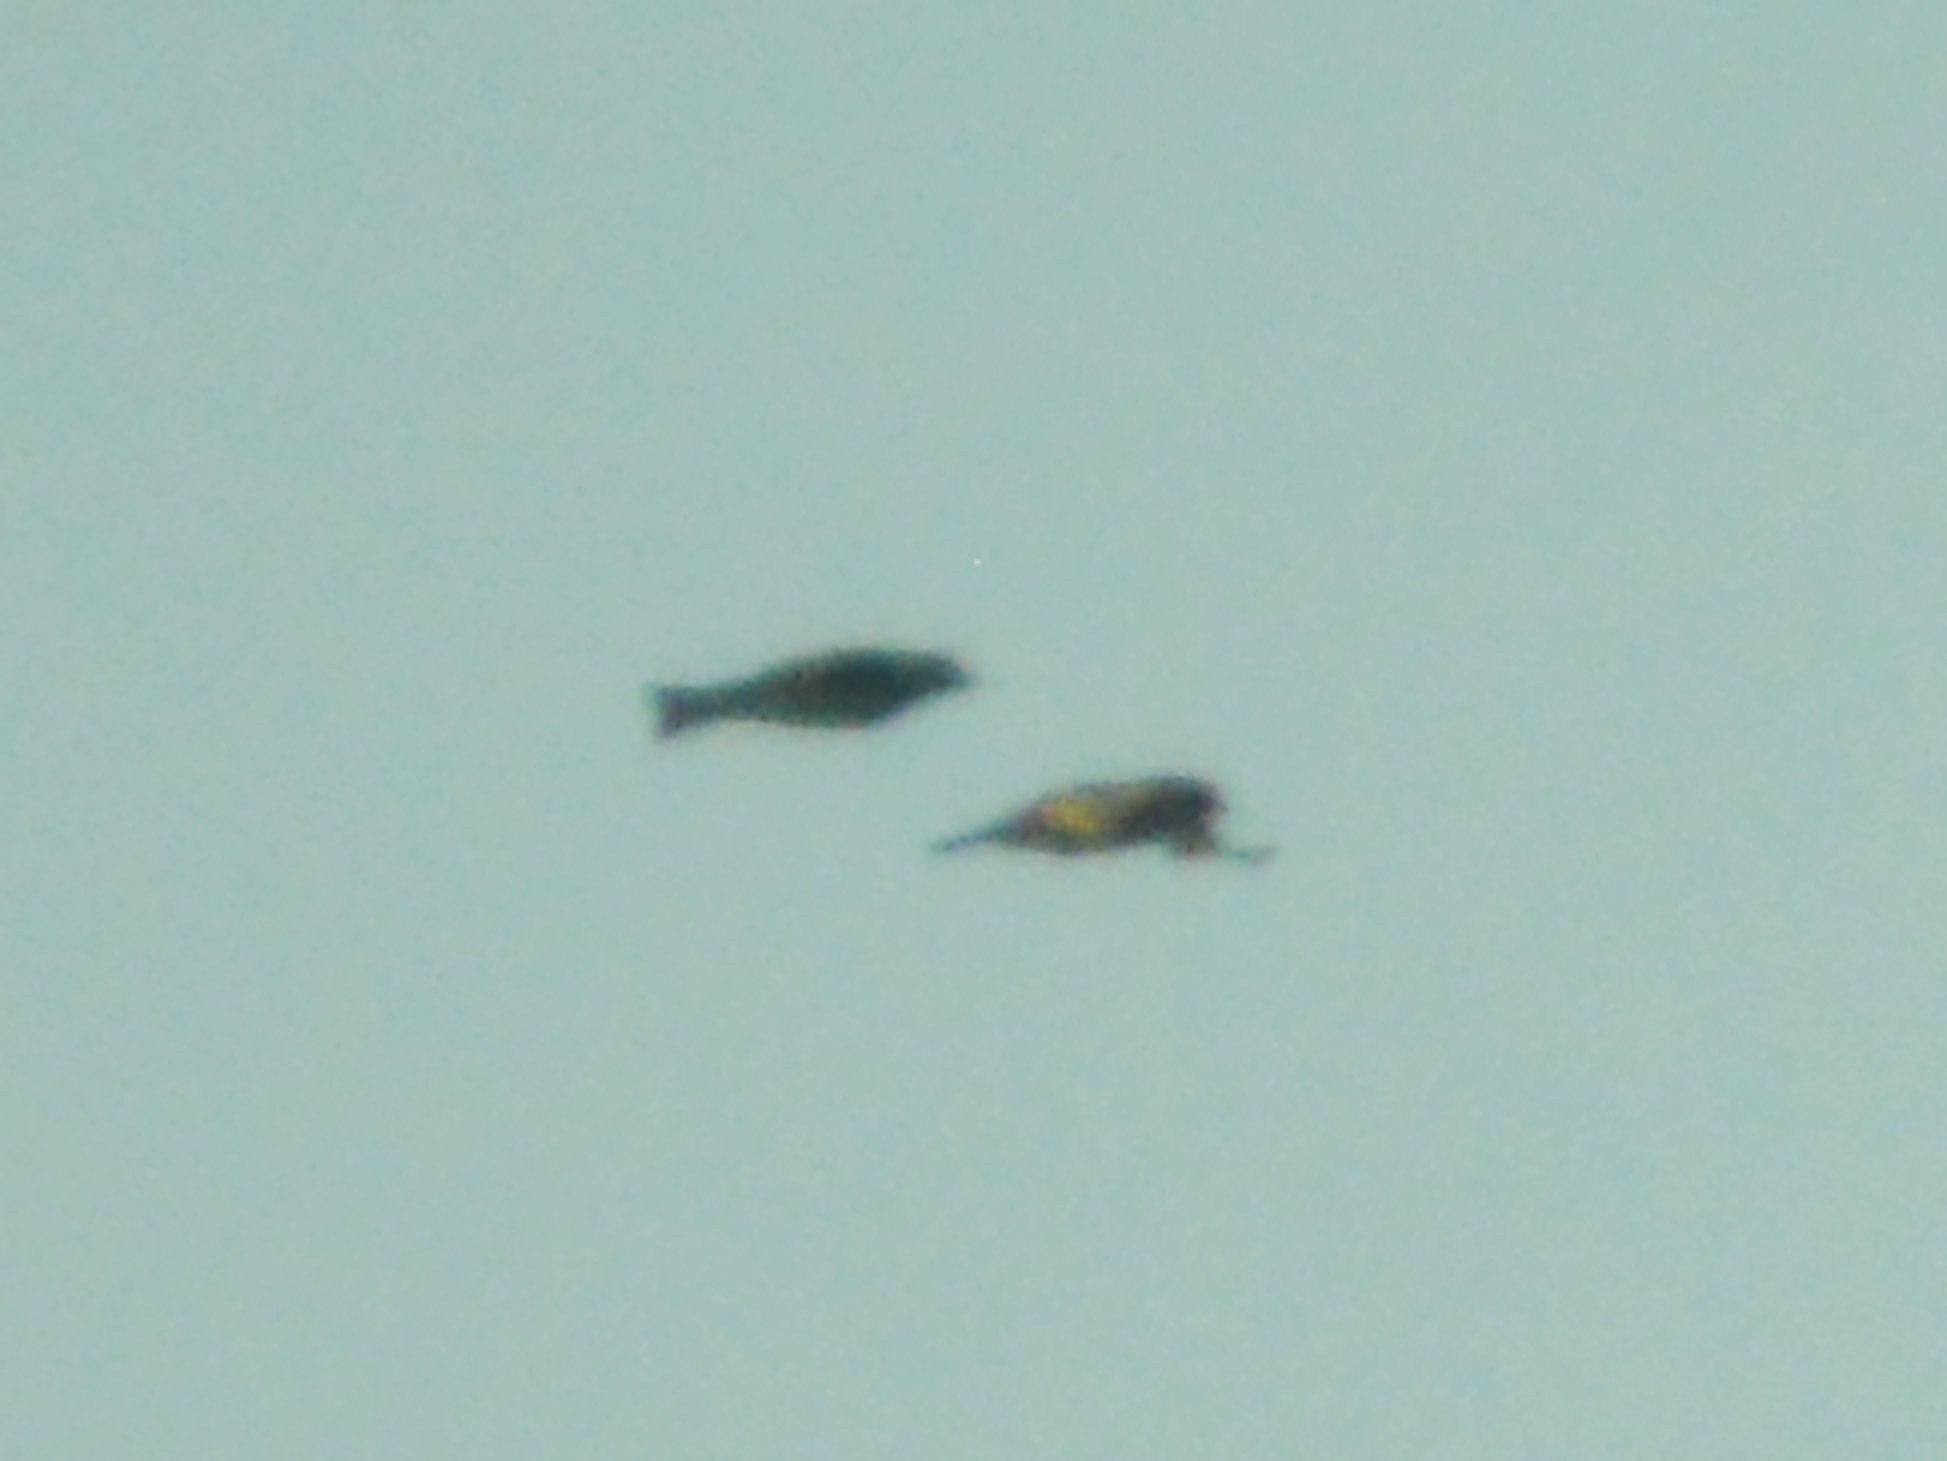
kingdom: Plantae
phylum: Tracheophyta
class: Liliopsida
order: Poales
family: Poaceae
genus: Chloris
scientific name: Chloris chloris
